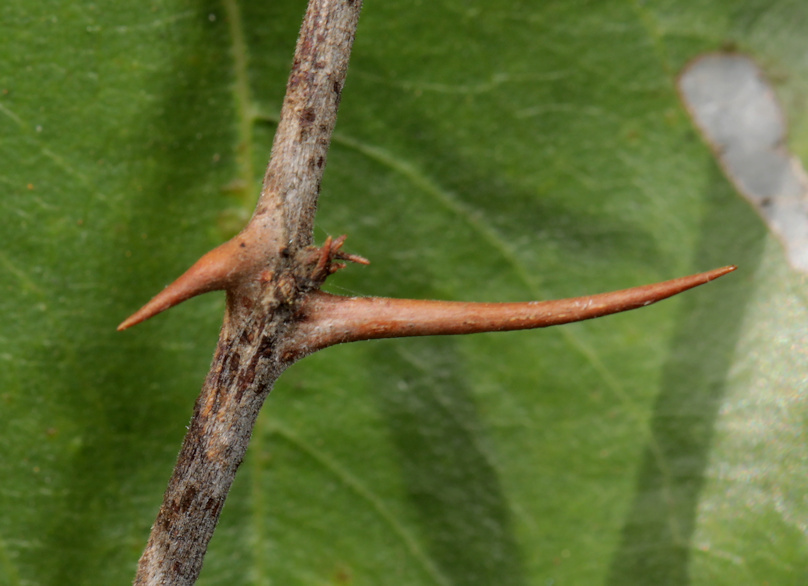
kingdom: Plantae
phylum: Tracheophyta
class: Magnoliopsida
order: Rosales
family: Rhamnaceae
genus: Ziziphus
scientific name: Ziziphus mucronata
